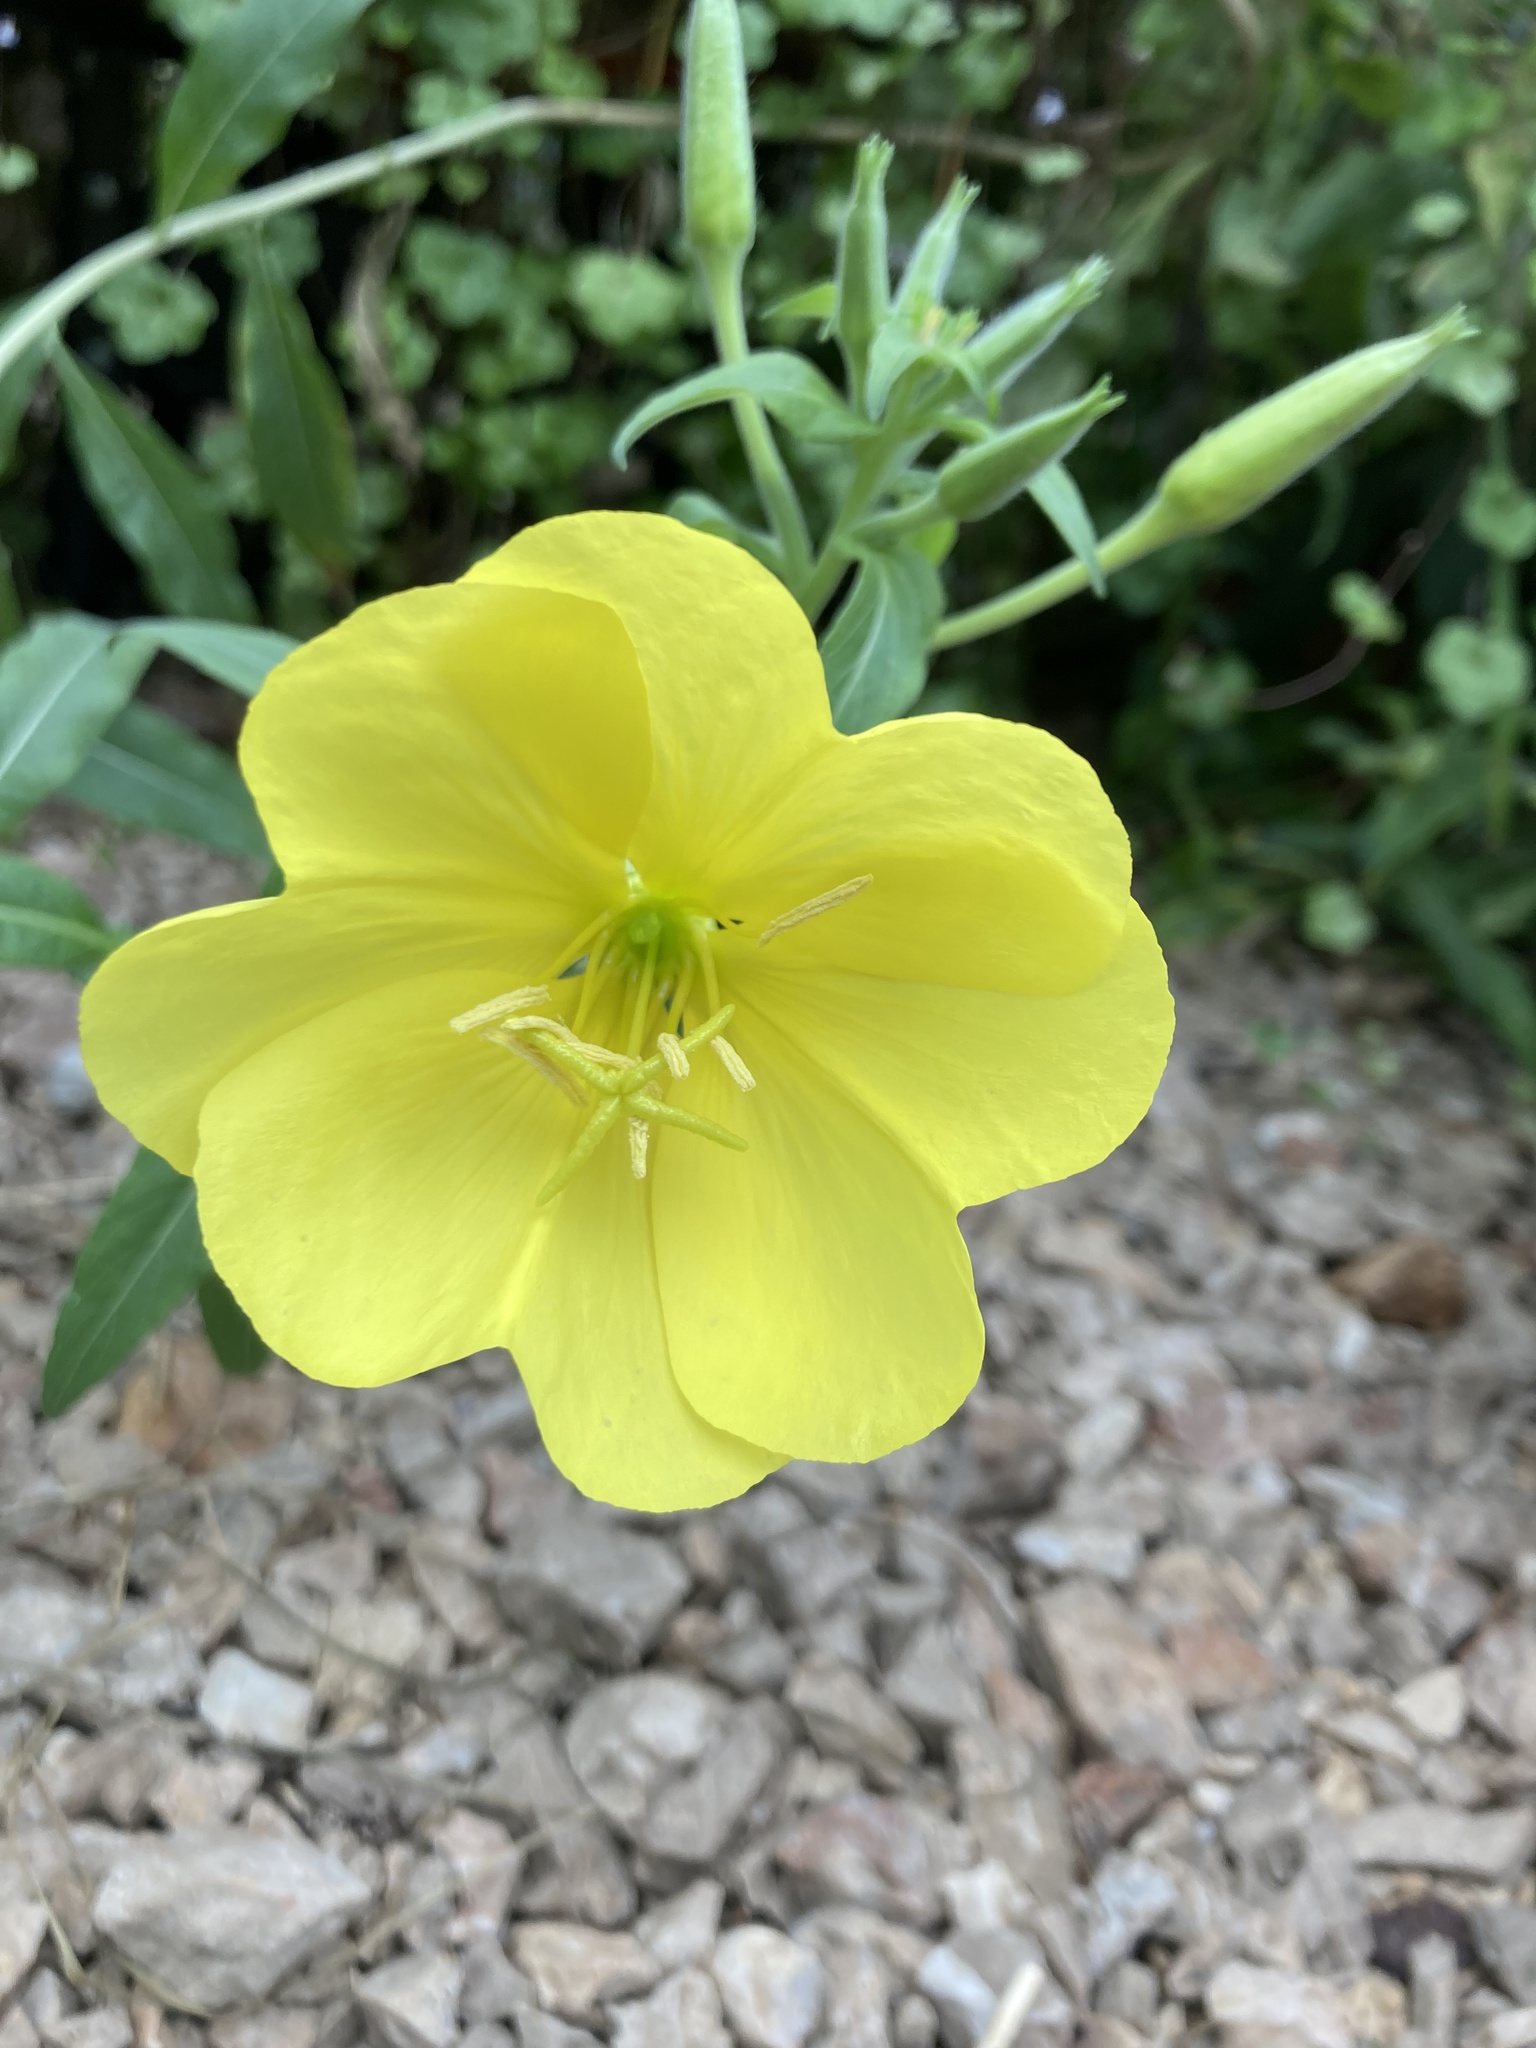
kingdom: Plantae
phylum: Tracheophyta
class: Magnoliopsida
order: Myrtales
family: Onagraceae
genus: Oenothera
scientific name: Oenothera macrocarpa
